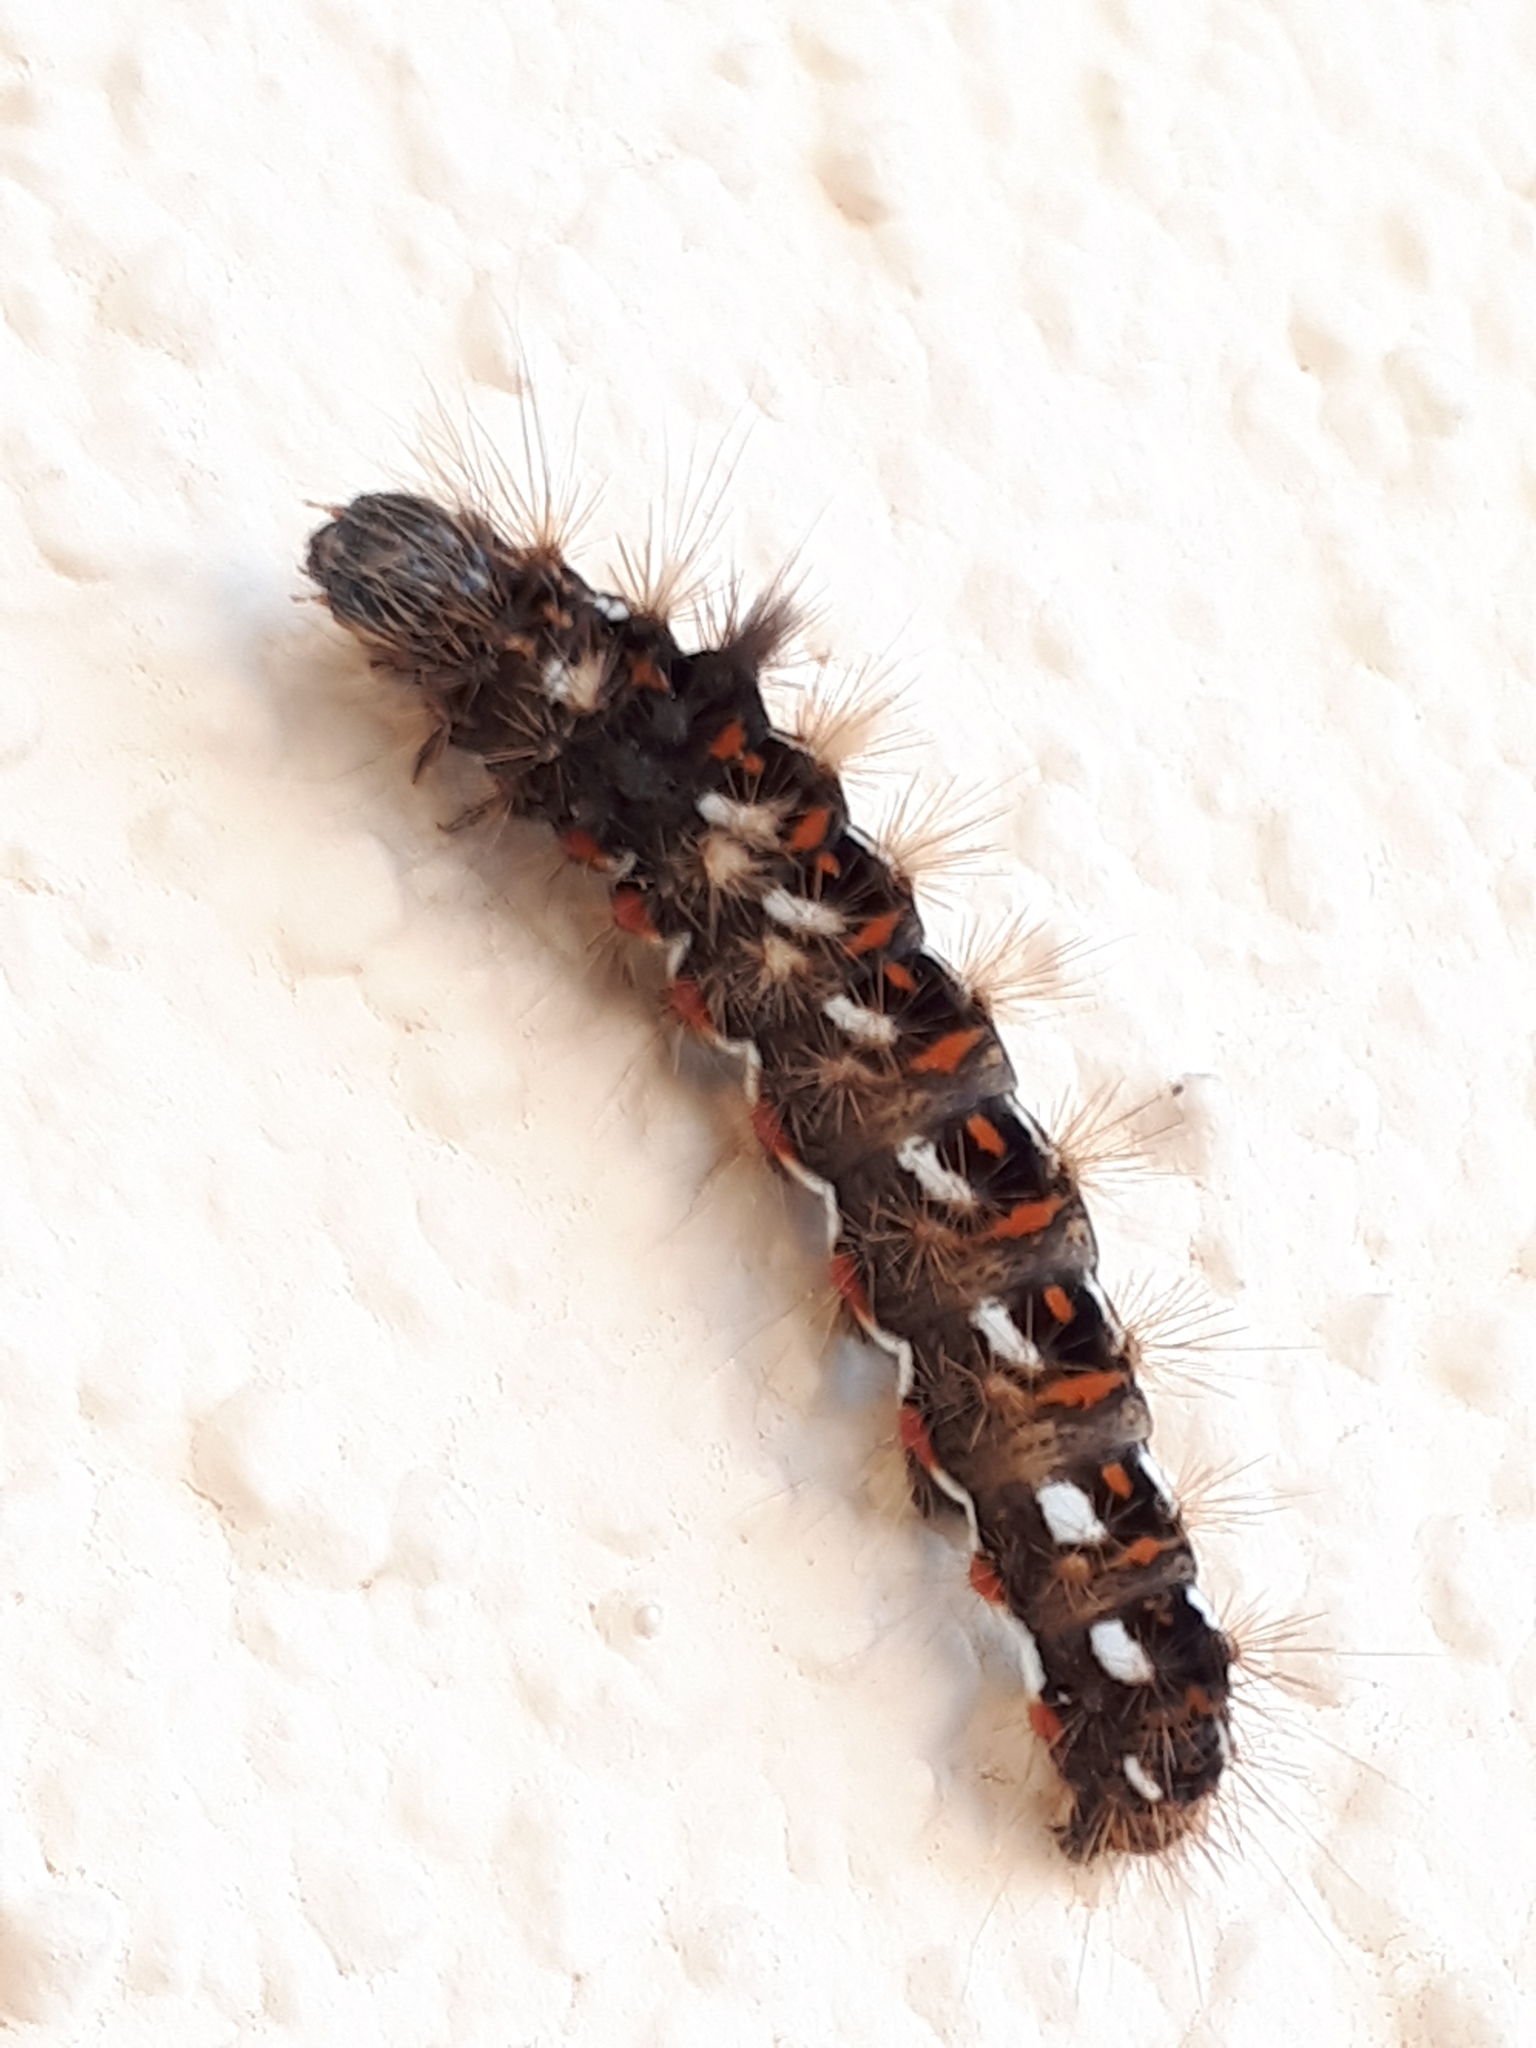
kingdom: Animalia
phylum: Arthropoda
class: Insecta
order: Lepidoptera
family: Noctuidae
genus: Acronicta
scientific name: Acronicta rumicis
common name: Knot grass
